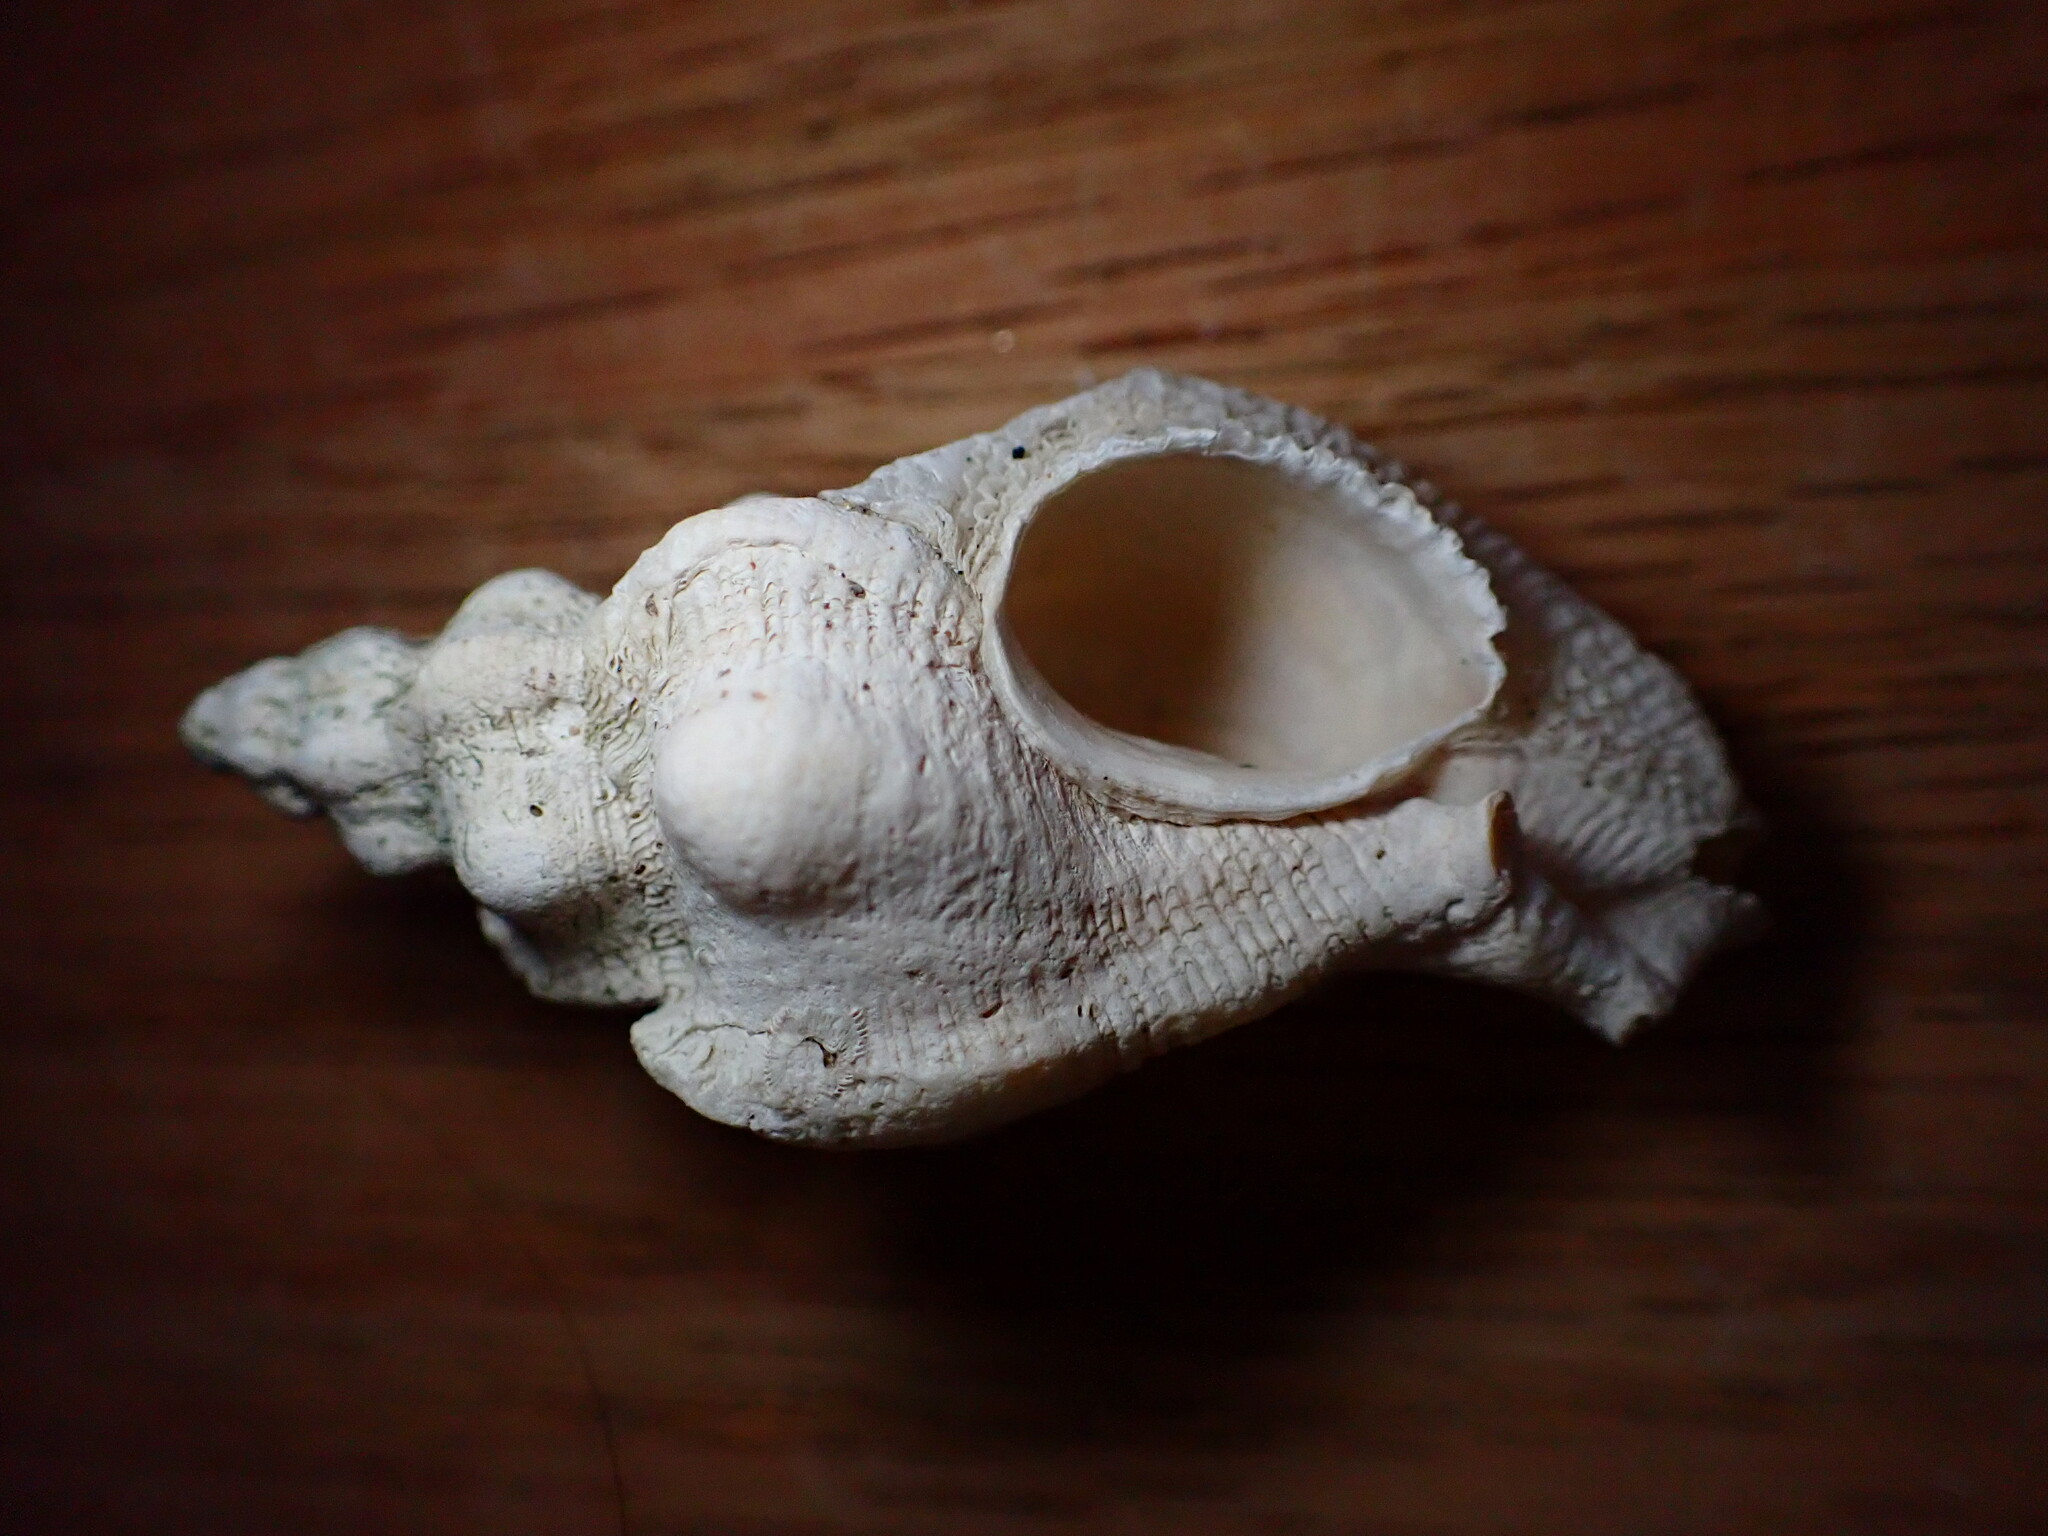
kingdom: Animalia
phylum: Mollusca
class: Gastropoda
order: Neogastropoda
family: Muricidae
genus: Pteropurpura
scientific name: Pteropurpura festiva
